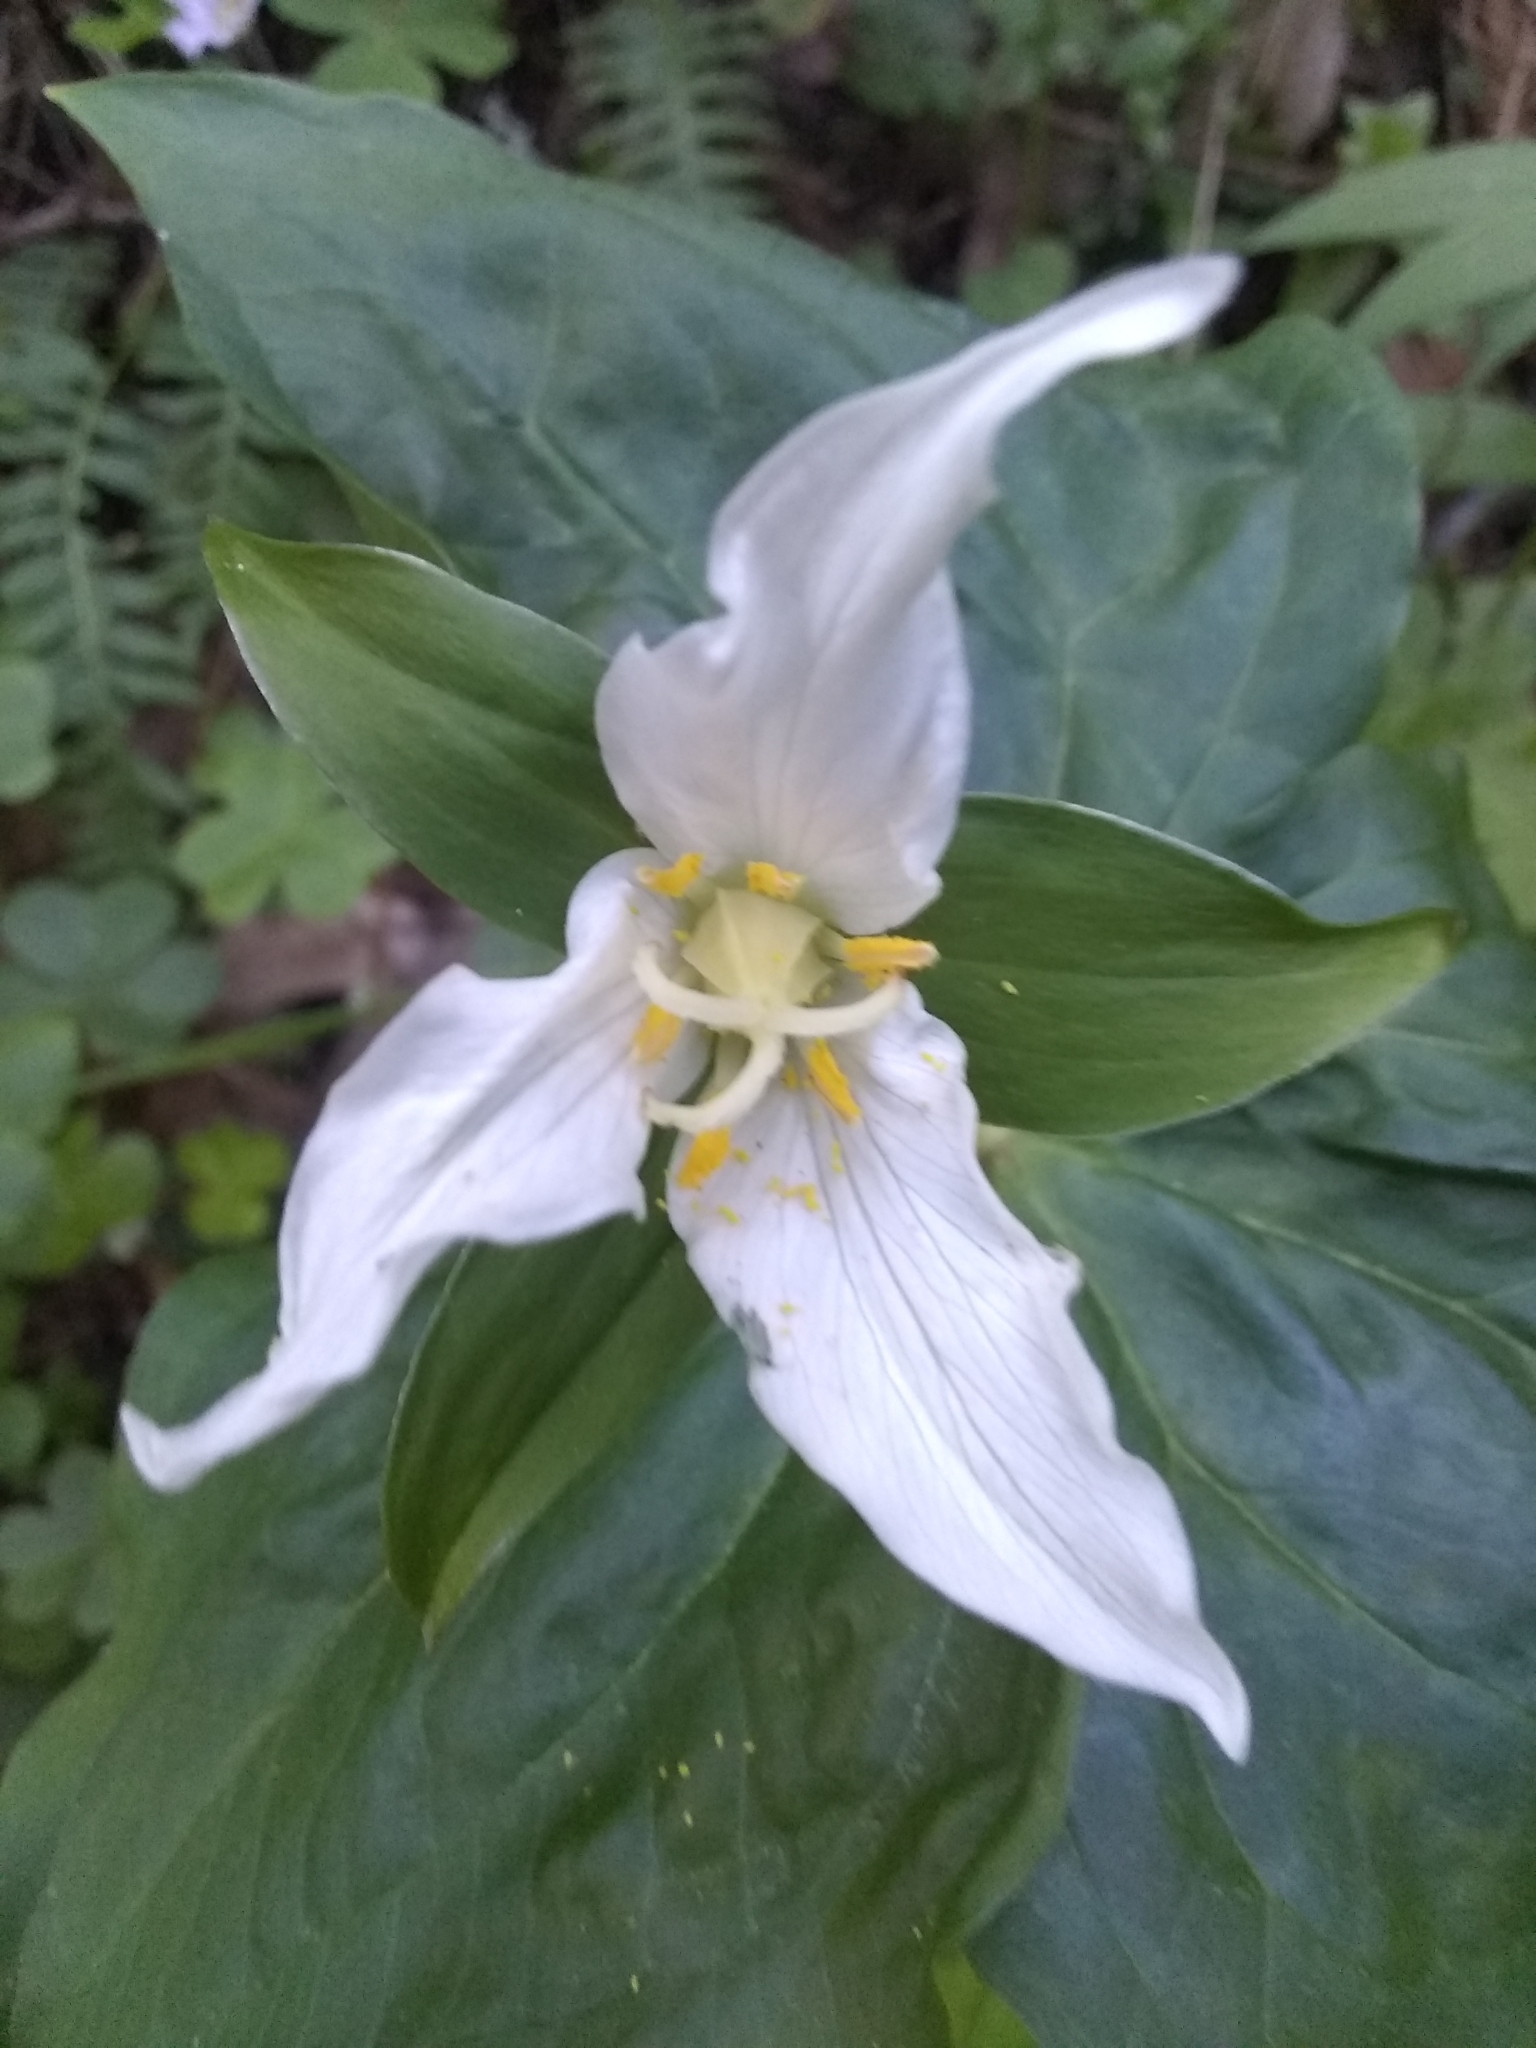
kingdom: Plantae
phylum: Tracheophyta
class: Liliopsida
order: Liliales
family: Melanthiaceae
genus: Trillium
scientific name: Trillium ovatum
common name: Pacific trillium
